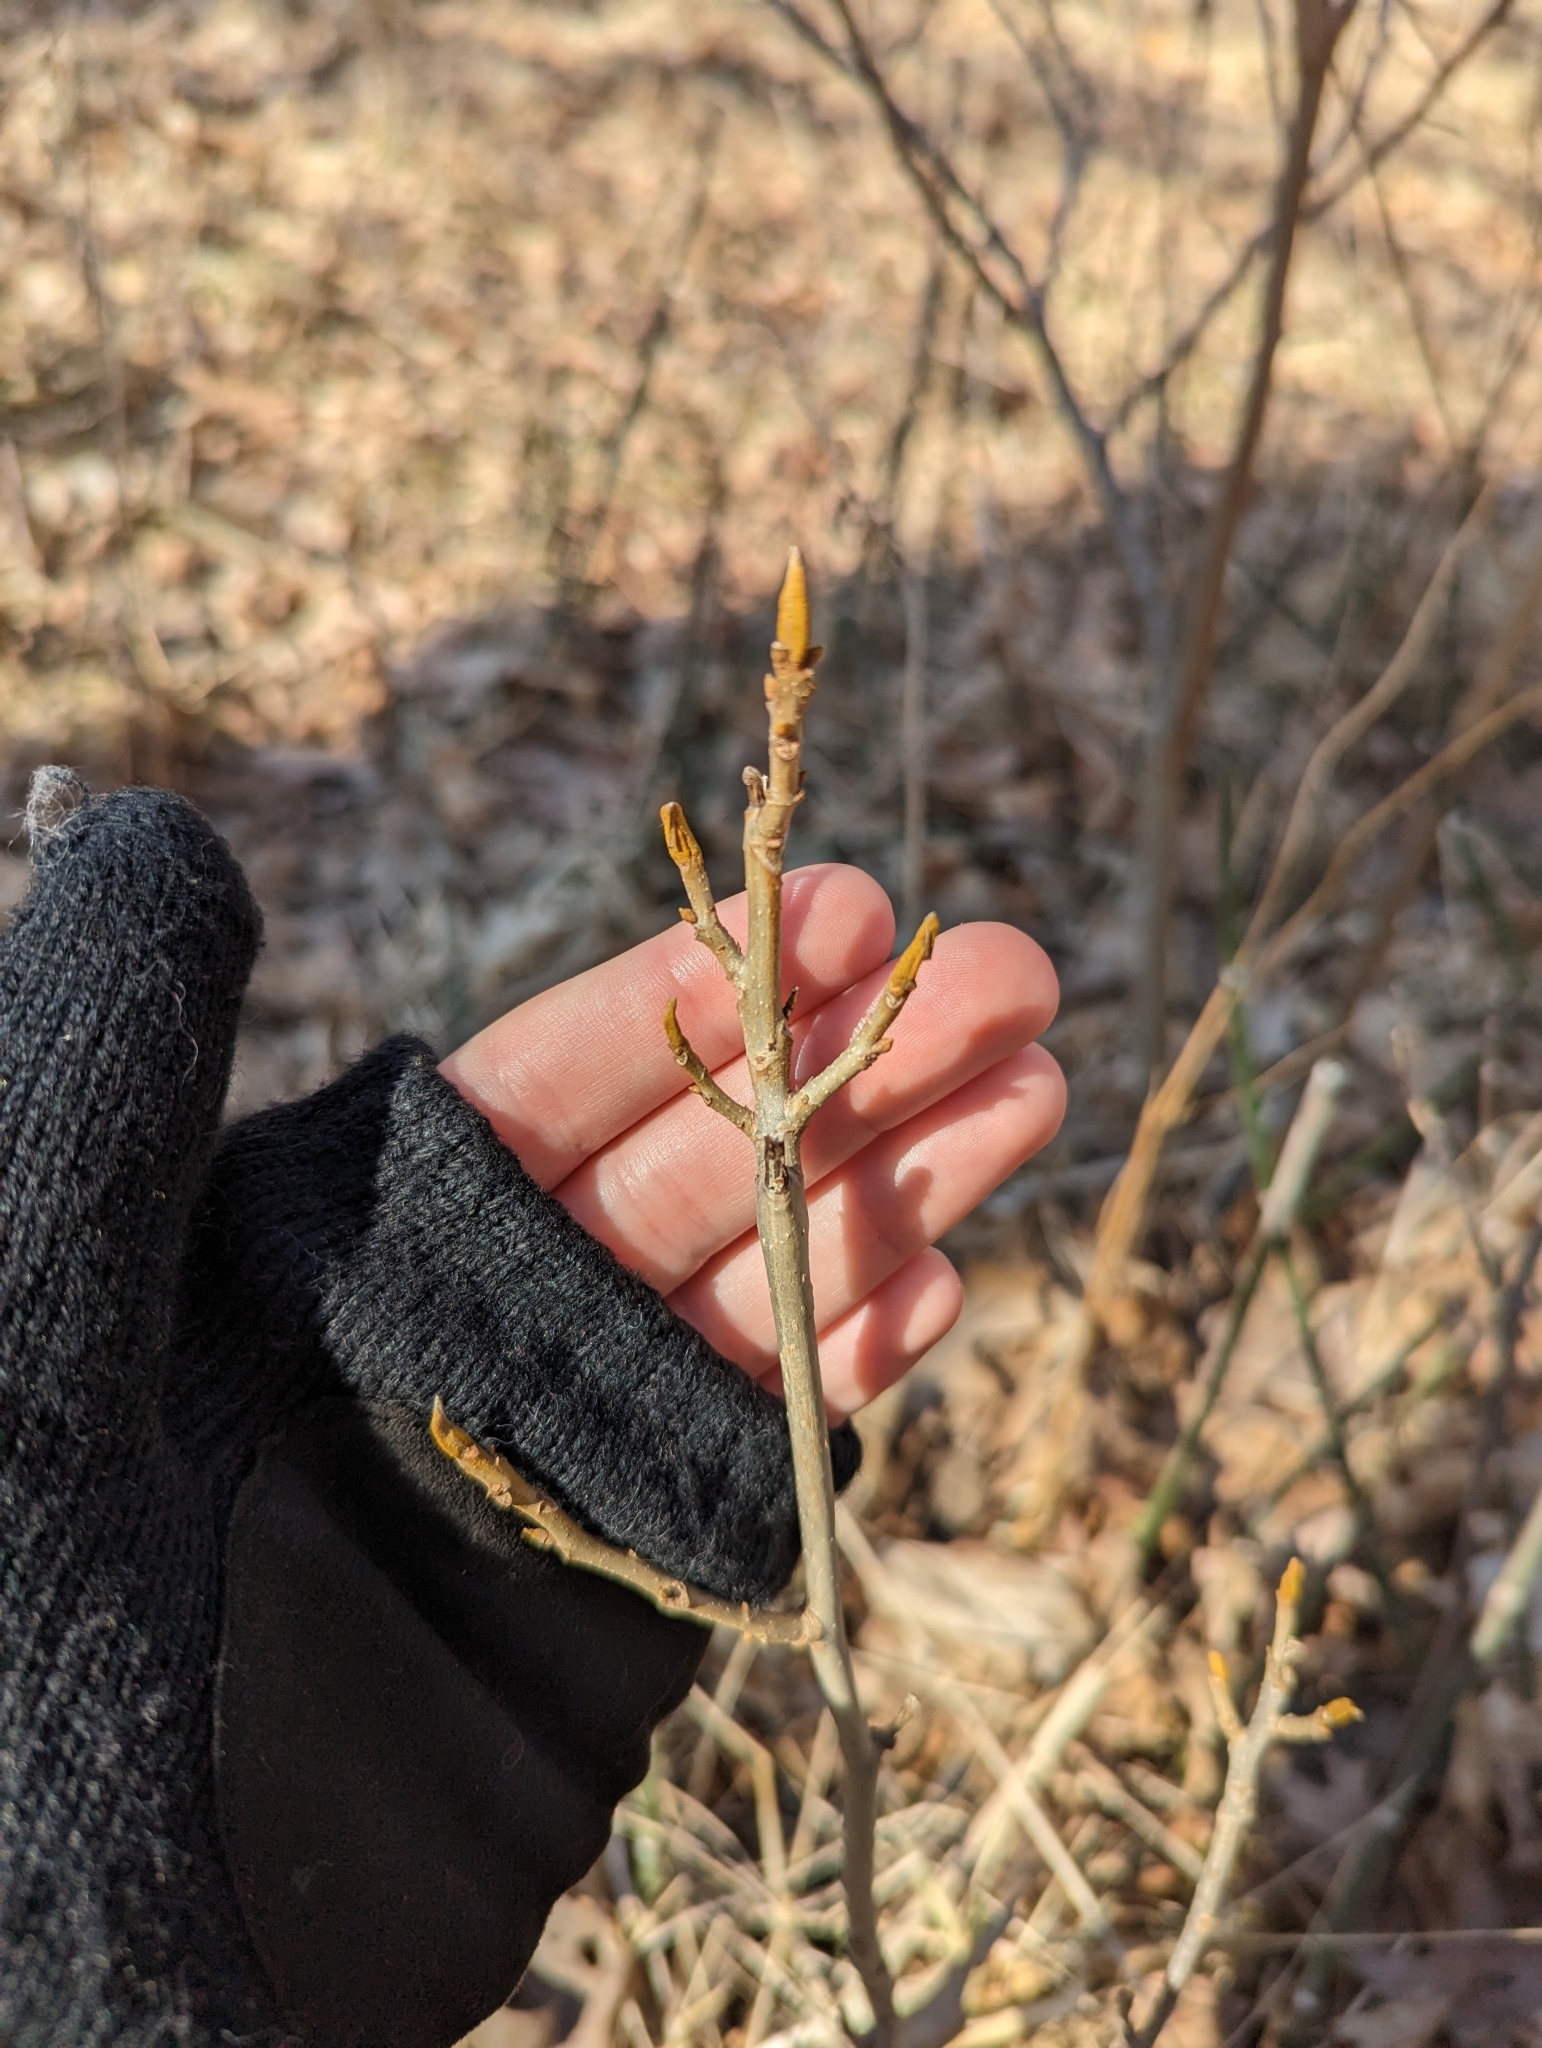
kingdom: Plantae
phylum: Tracheophyta
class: Magnoliopsida
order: Fagales
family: Juglandaceae
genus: Carya
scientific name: Carya cordiformis
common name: Bitternut hickory
